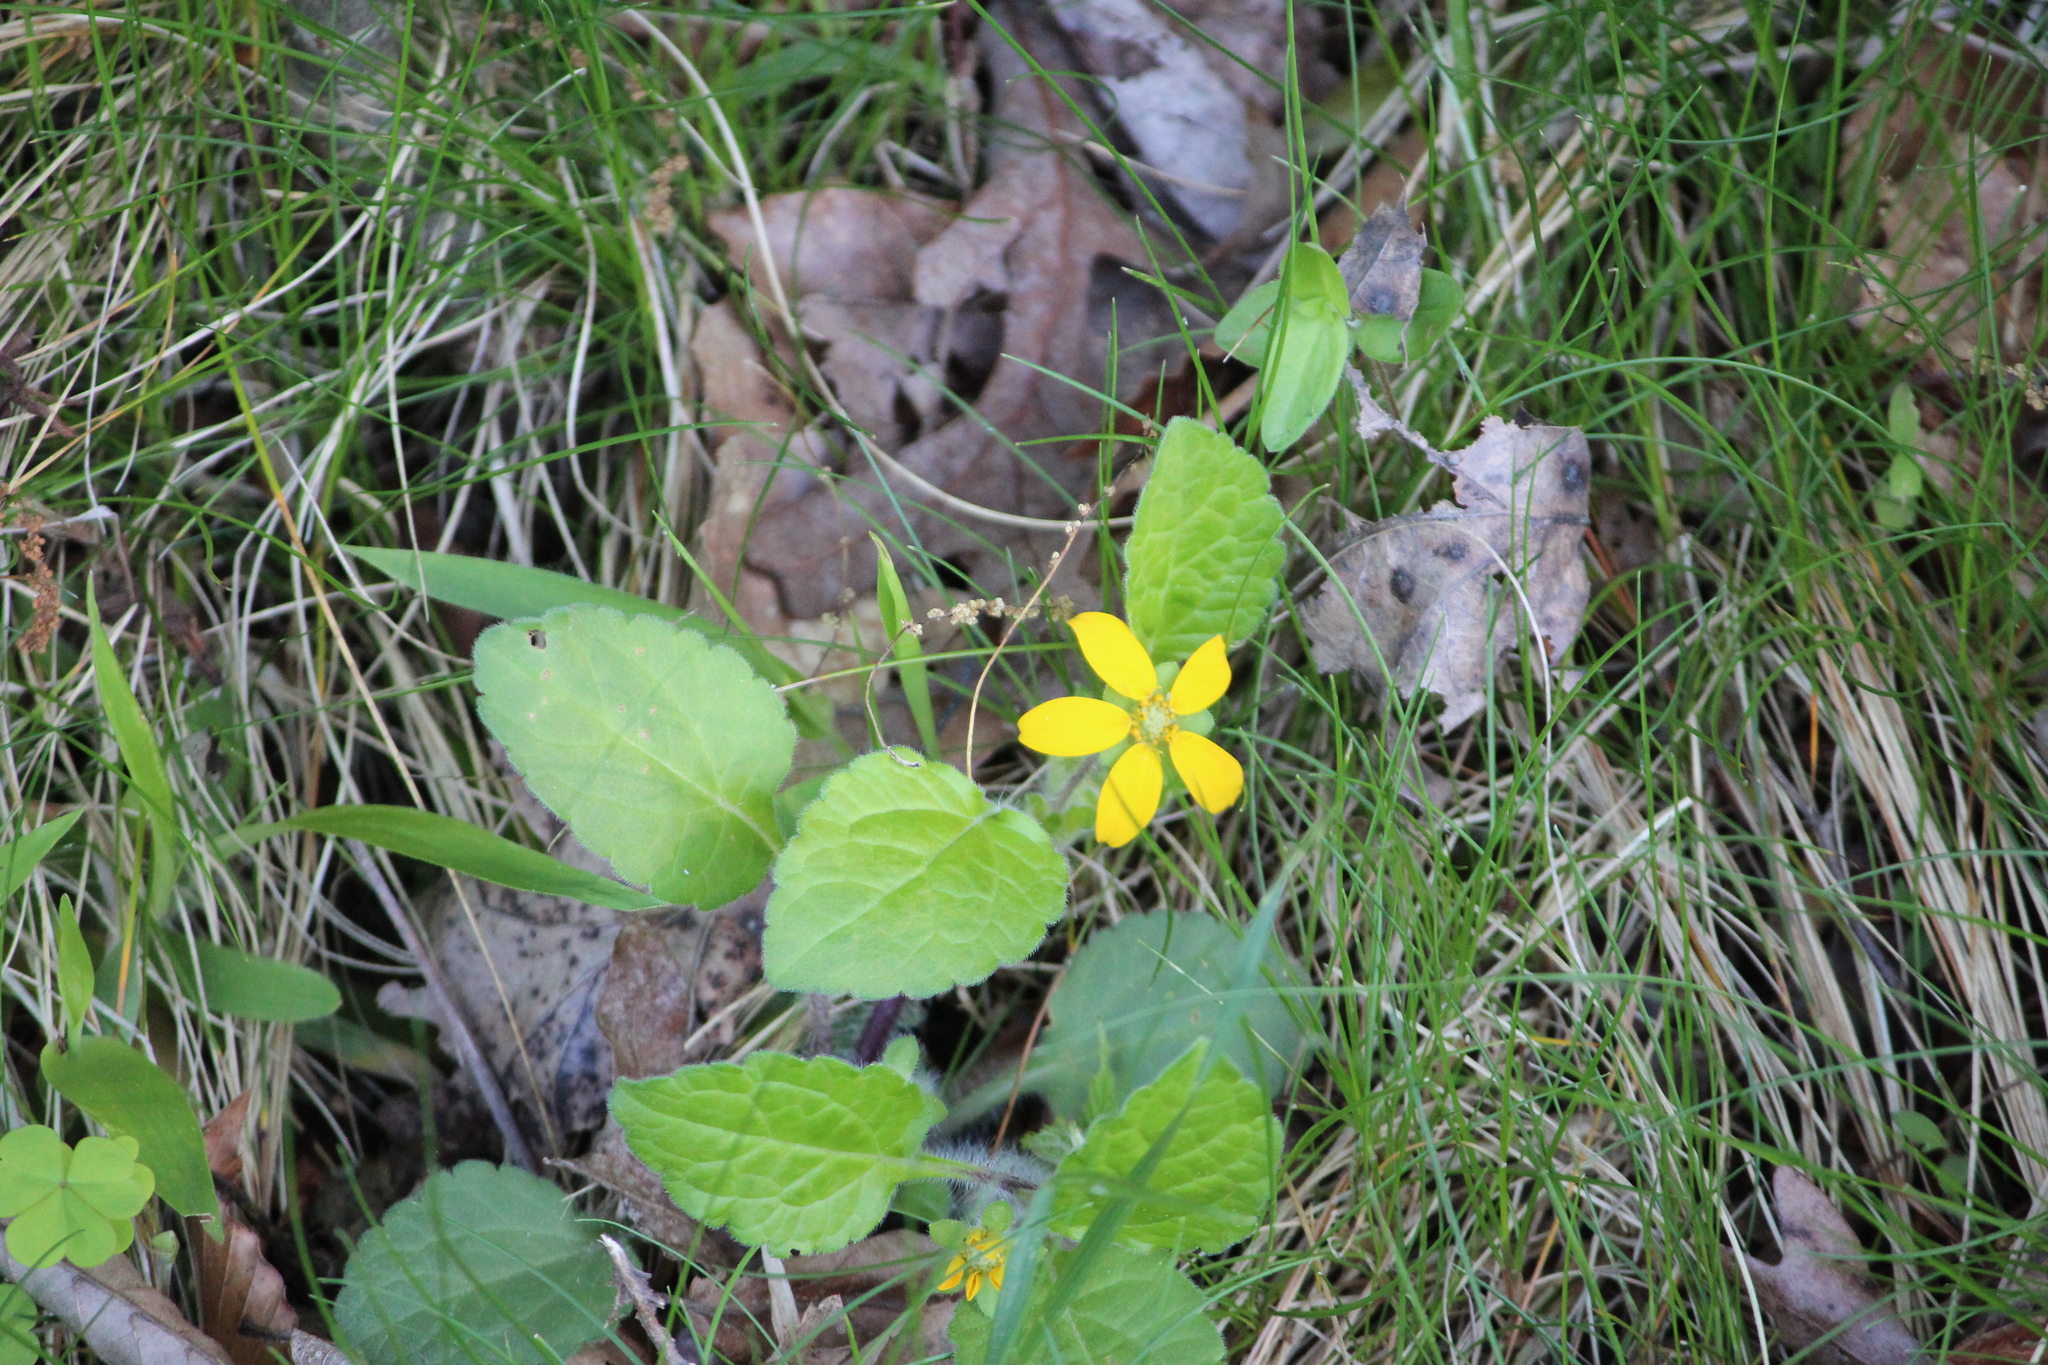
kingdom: Plantae
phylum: Tracheophyta
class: Magnoliopsida
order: Asterales
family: Asteraceae
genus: Chrysogonum
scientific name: Chrysogonum virginianum
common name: Golden-knee
